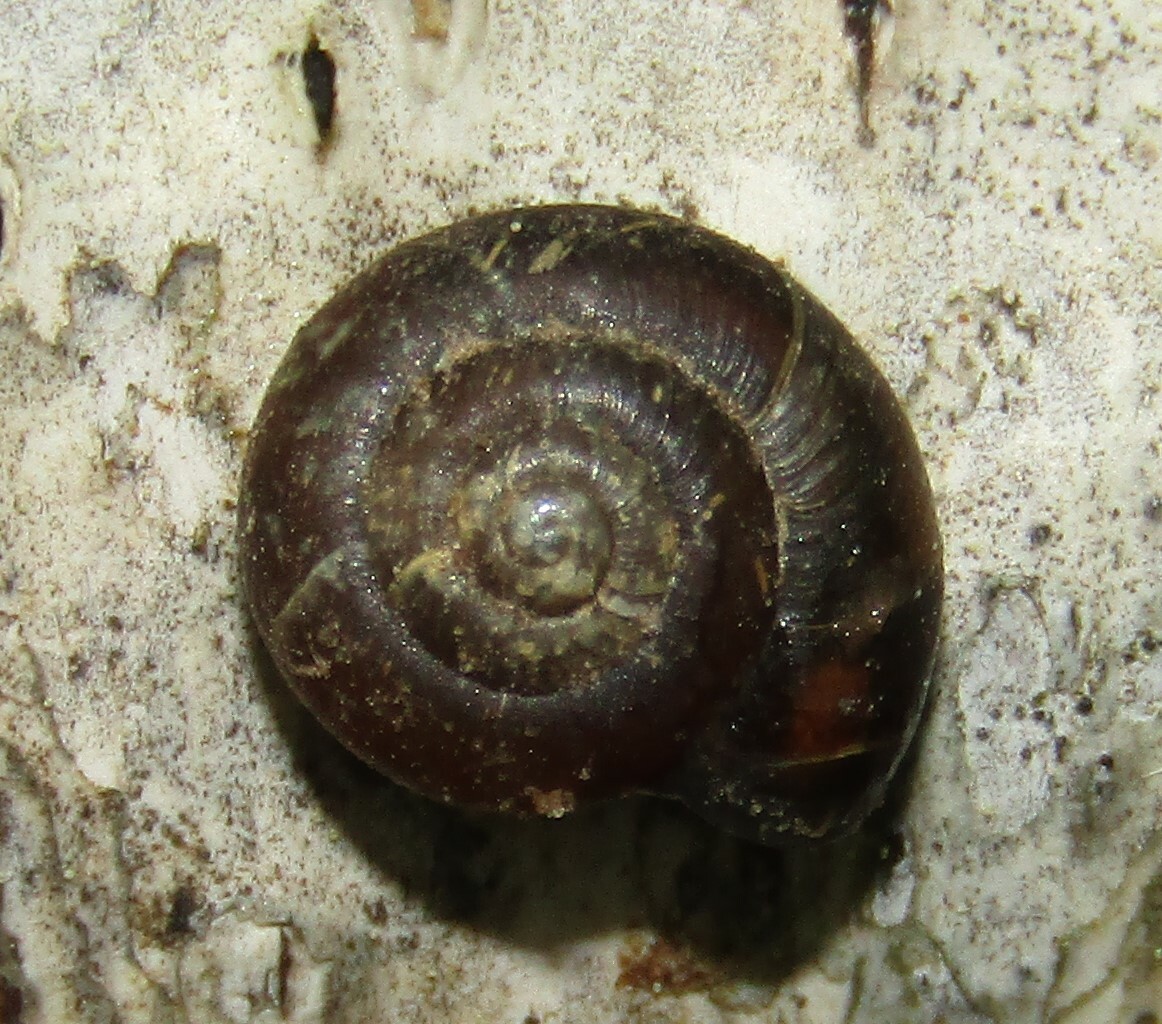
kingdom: Animalia
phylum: Mollusca
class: Gastropoda
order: Stylommatophora
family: Gastrodontidae
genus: Zonitoides
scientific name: Zonitoides nitidus
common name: Shiny glass snail
